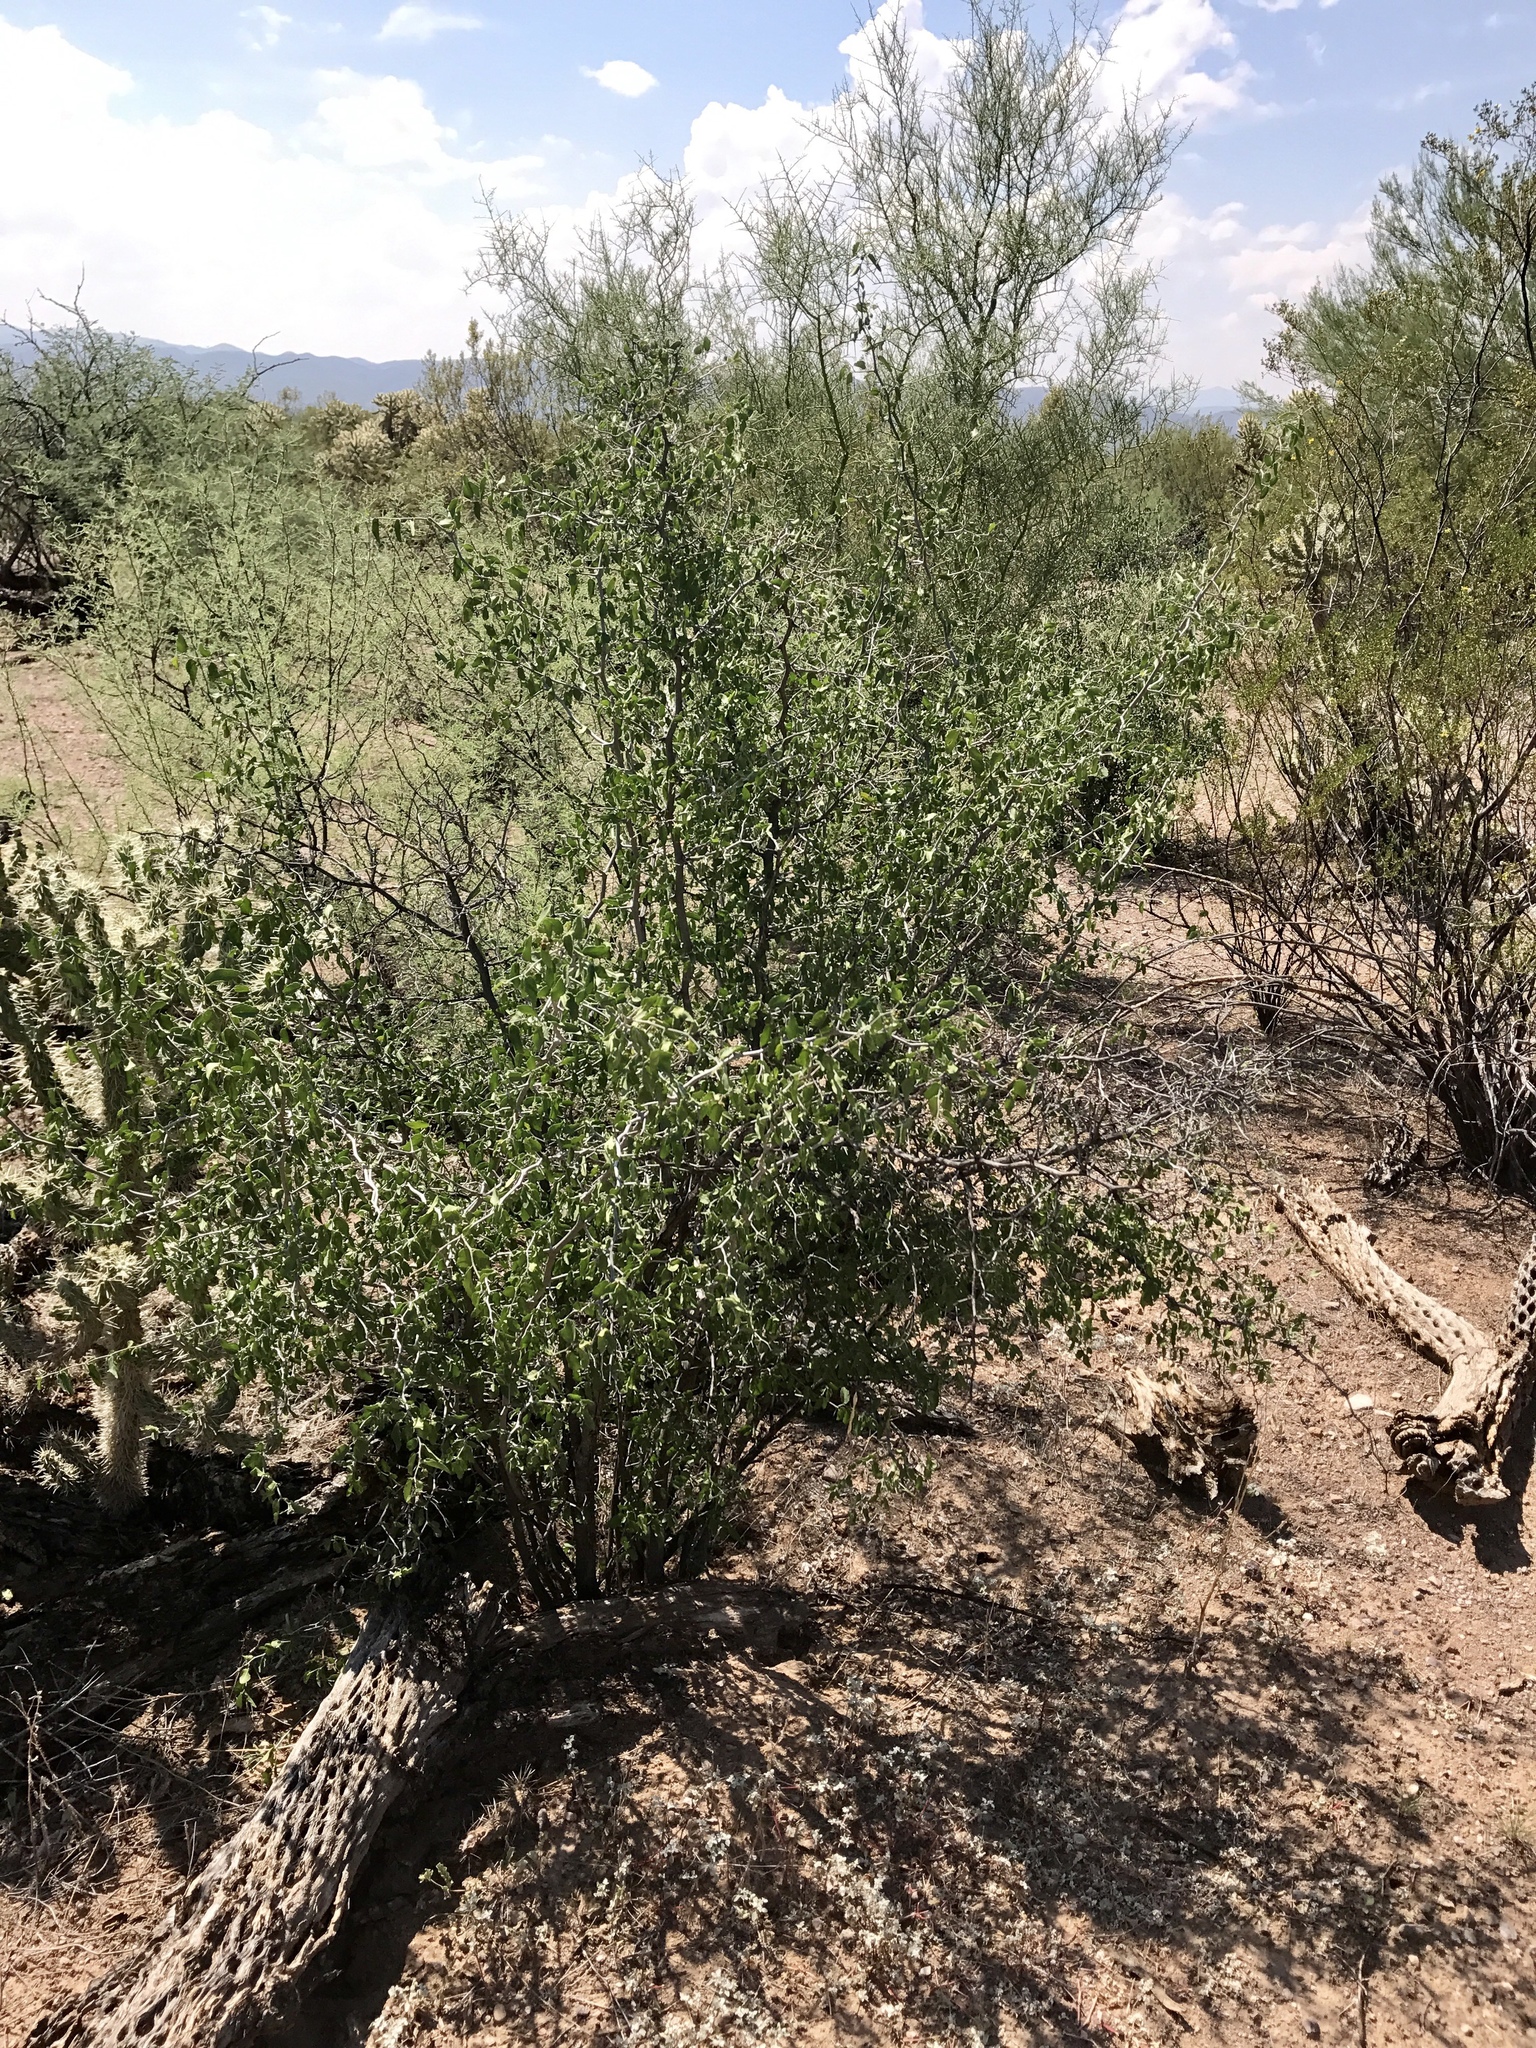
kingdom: Plantae
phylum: Tracheophyta
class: Magnoliopsida
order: Rosales
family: Cannabaceae
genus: Celtis
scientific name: Celtis pallida
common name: Desert hackberry
